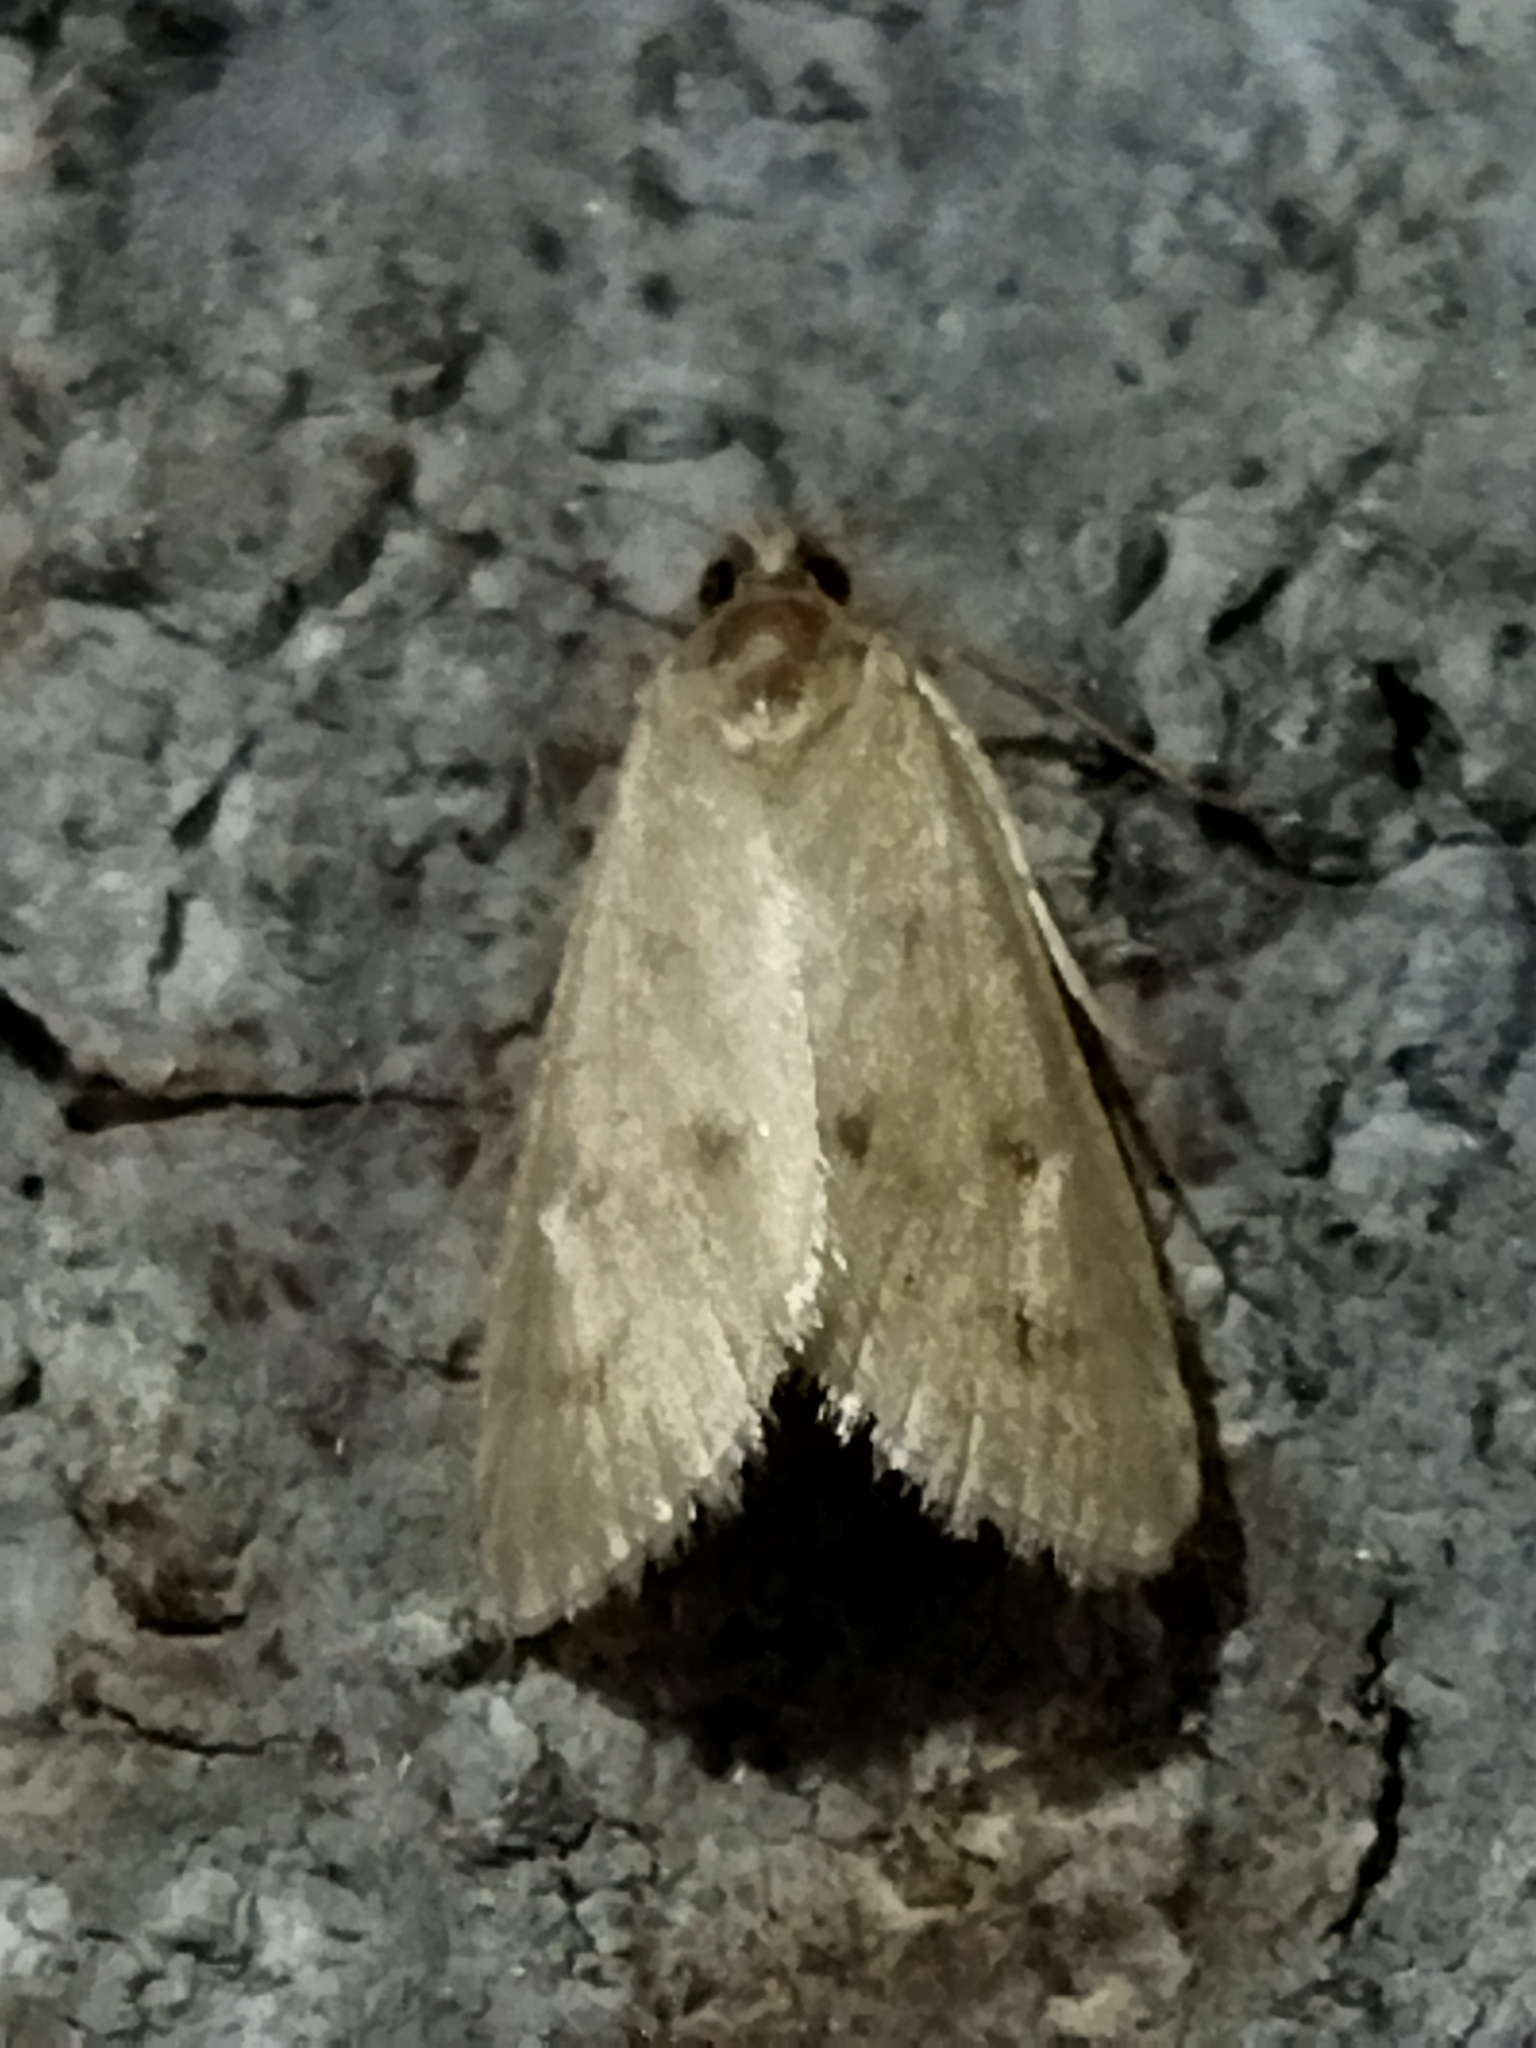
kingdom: Animalia
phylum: Arthropoda
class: Insecta
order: Lepidoptera
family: Crambidae
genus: Achyra
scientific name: Achyra nudalis
